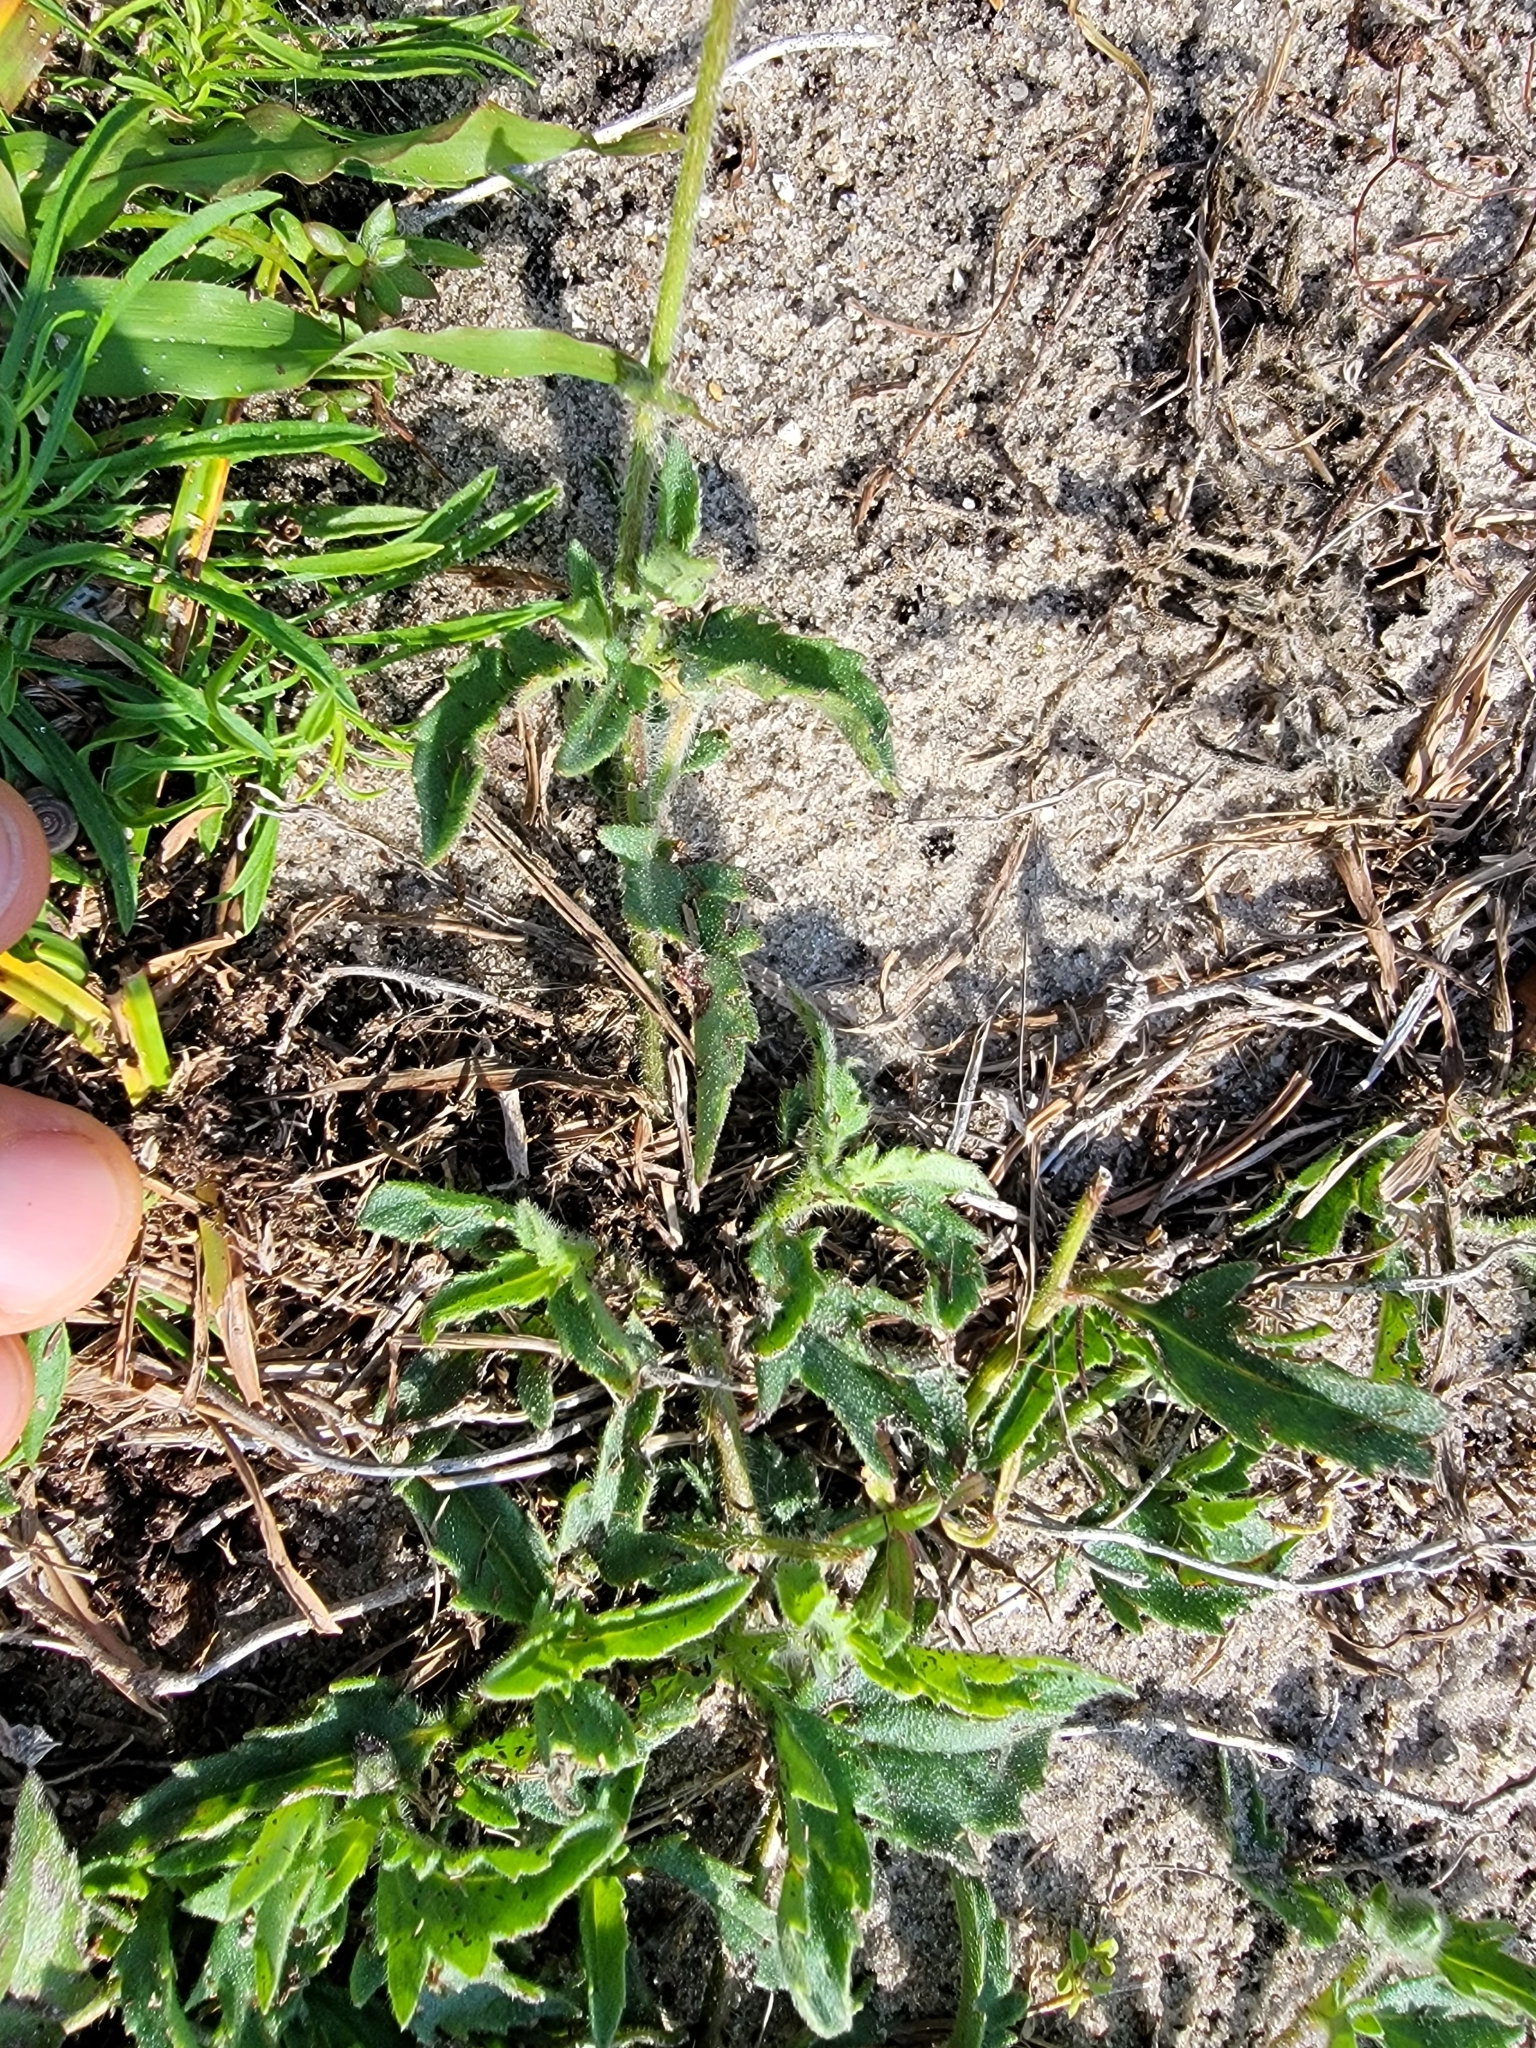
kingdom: Plantae
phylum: Tracheophyta
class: Magnoliopsida
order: Asterales
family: Asteraceae
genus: Tridax
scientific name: Tridax procumbens
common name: Coatbuttons
